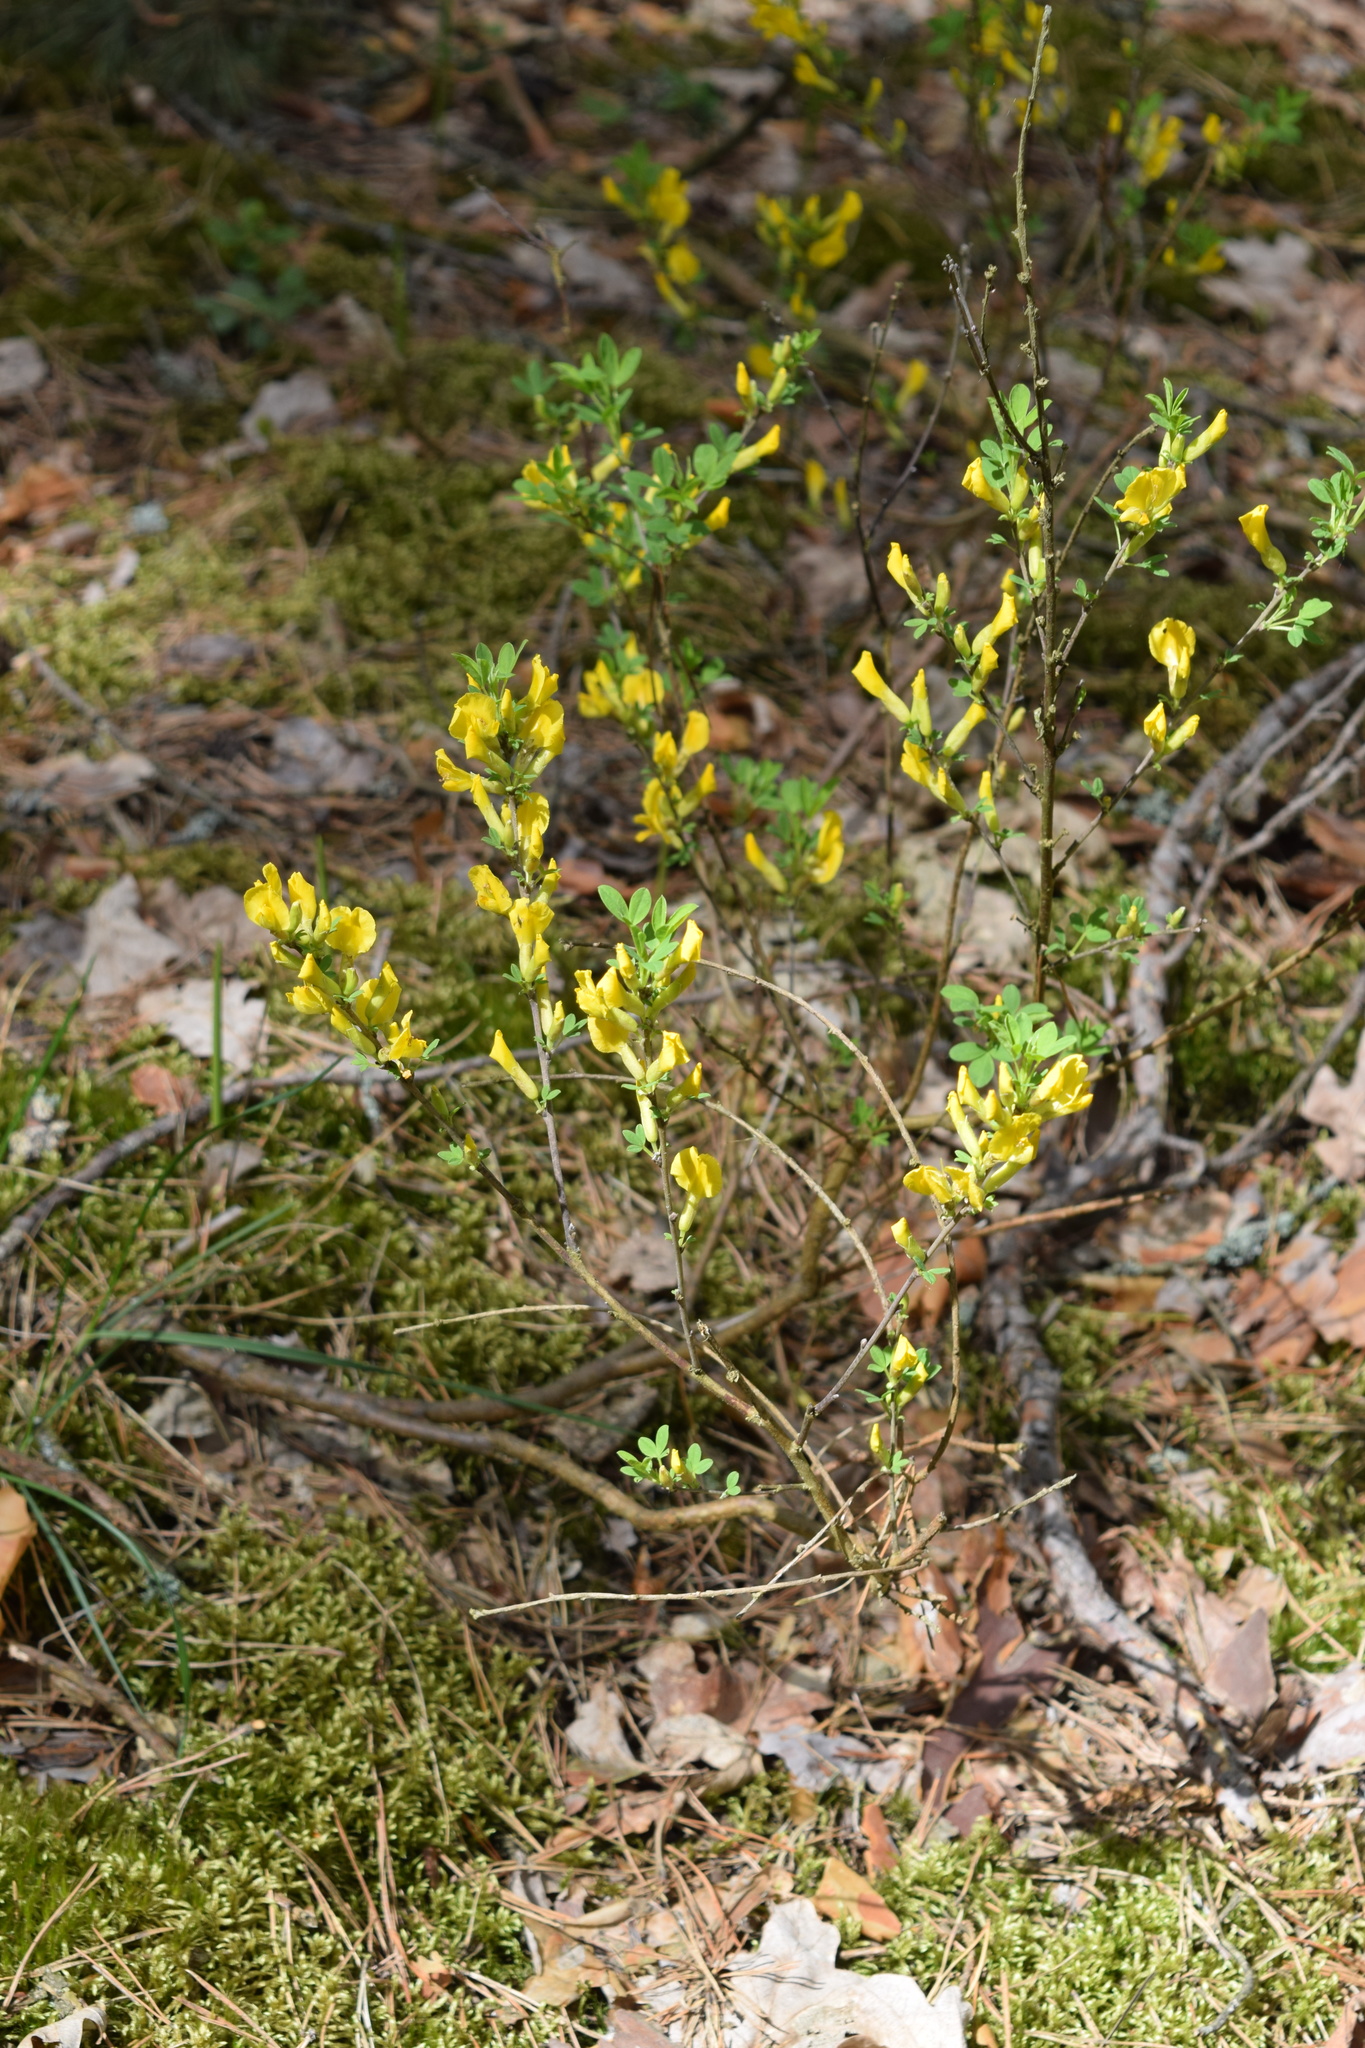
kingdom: Plantae
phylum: Tracheophyta
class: Magnoliopsida
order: Fabales
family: Fabaceae
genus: Chamaecytisus
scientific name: Chamaecytisus ruthenicus
